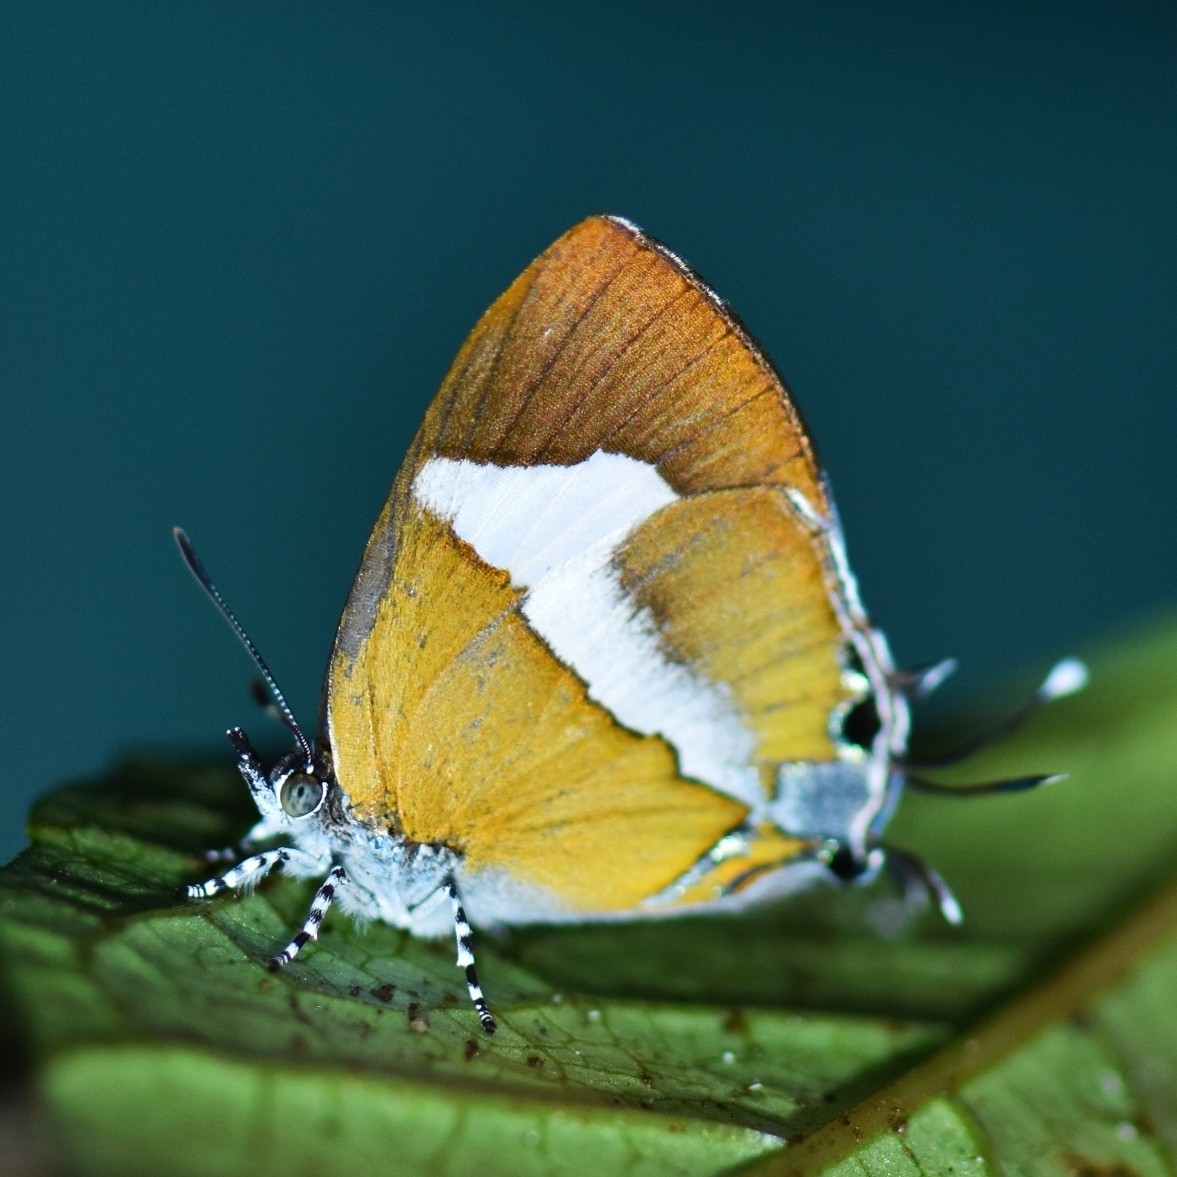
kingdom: Animalia
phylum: Arthropoda
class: Insecta
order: Lepidoptera
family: Lycaenidae
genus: Horaga
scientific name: Horaga onyx
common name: Common onyx
